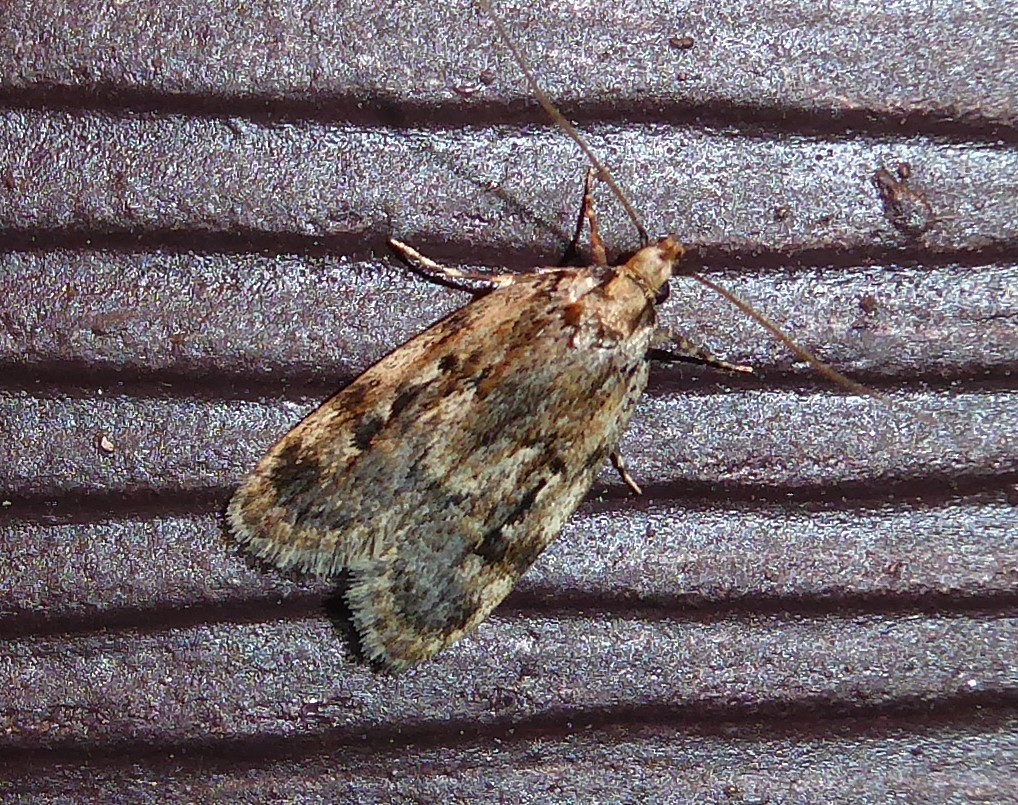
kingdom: Animalia
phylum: Arthropoda
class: Insecta
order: Lepidoptera
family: Oecophoridae
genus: Barea
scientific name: Barea exarcha
